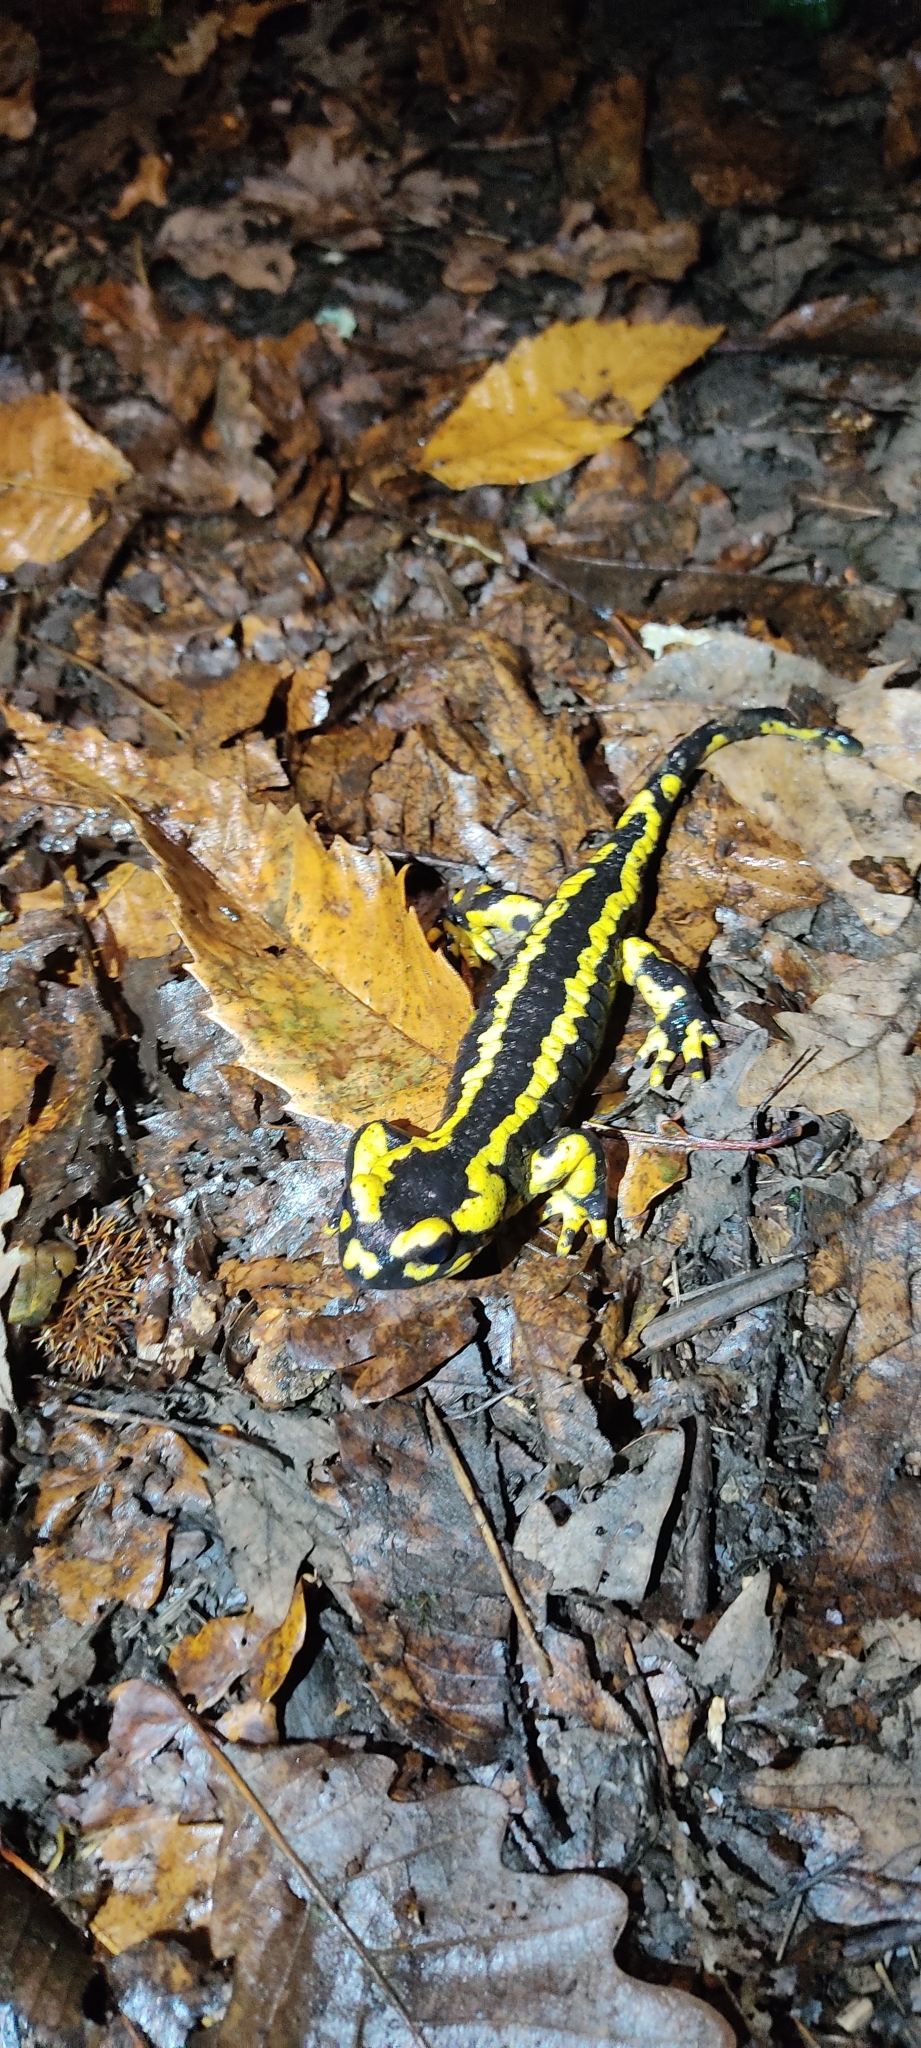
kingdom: Animalia
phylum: Chordata
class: Amphibia
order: Caudata
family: Salamandridae
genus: Salamandra
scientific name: Salamandra salamandra
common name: Fire salamander
